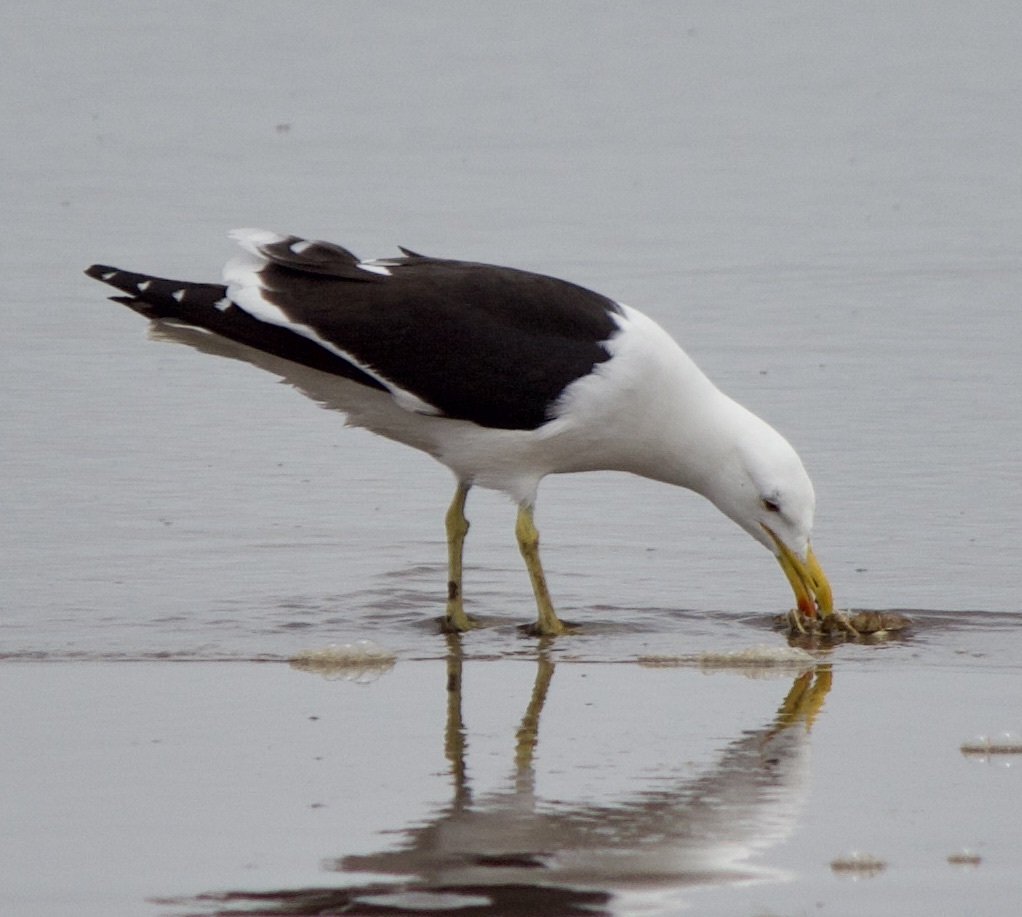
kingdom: Animalia
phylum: Chordata
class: Aves
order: Charadriiformes
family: Laridae
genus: Larus
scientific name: Larus dominicanus
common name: Kelp gull
